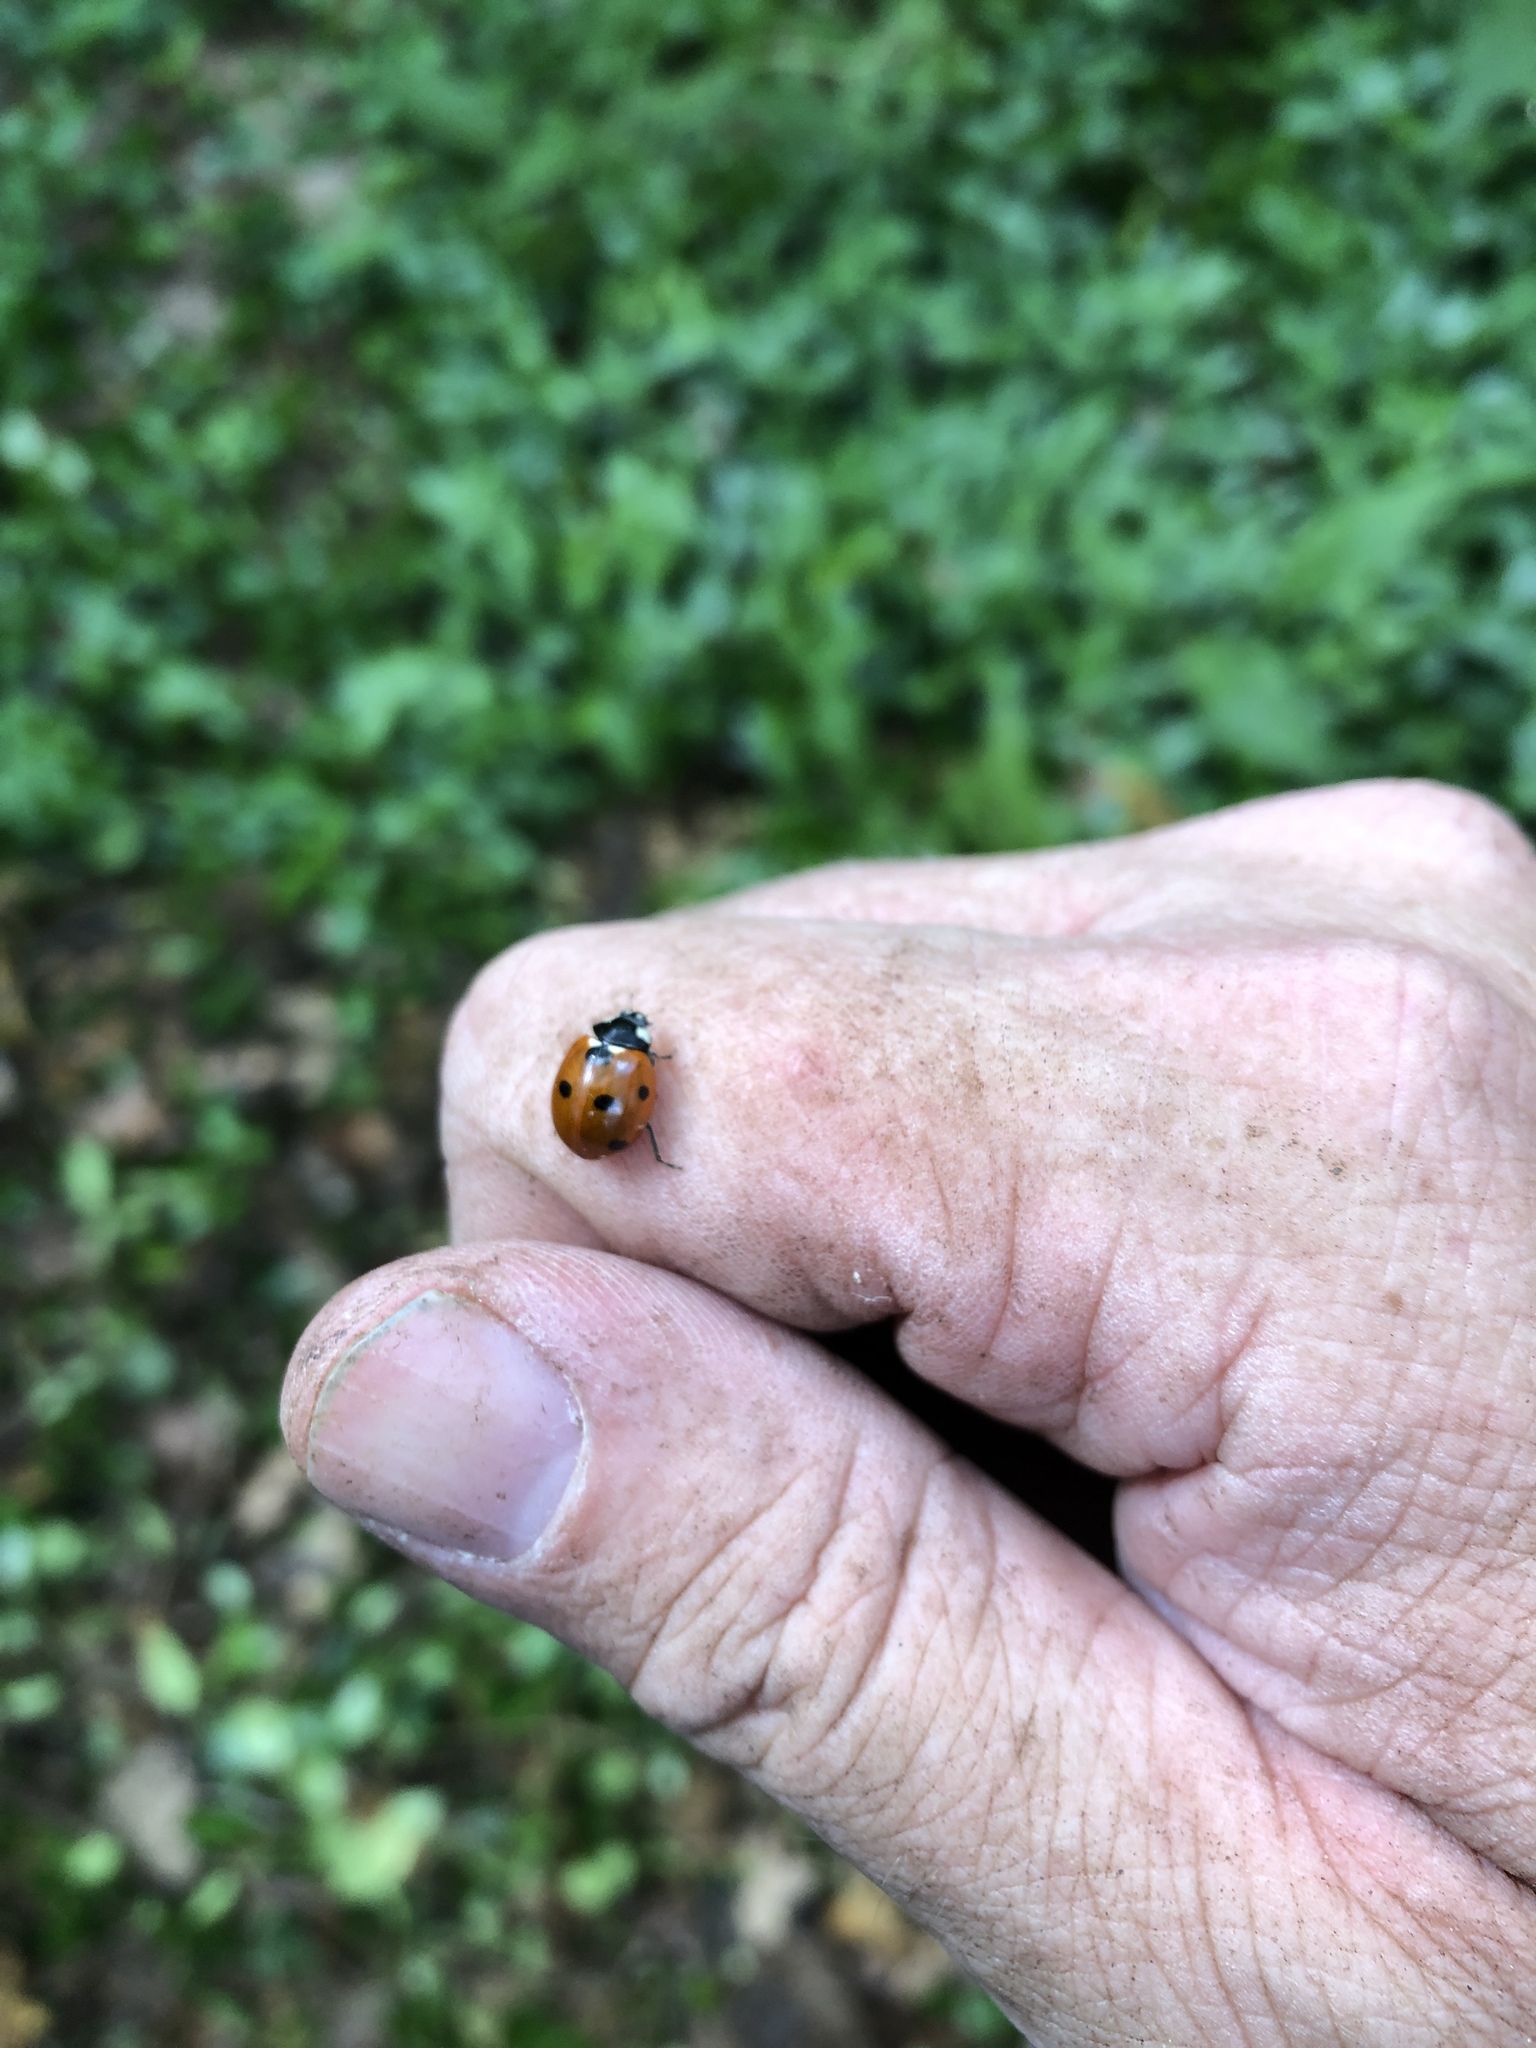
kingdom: Animalia
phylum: Arthropoda
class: Insecta
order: Coleoptera
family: Coccinellidae
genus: Coccinella
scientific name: Coccinella septempunctata
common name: Sevenspotted lady beetle
